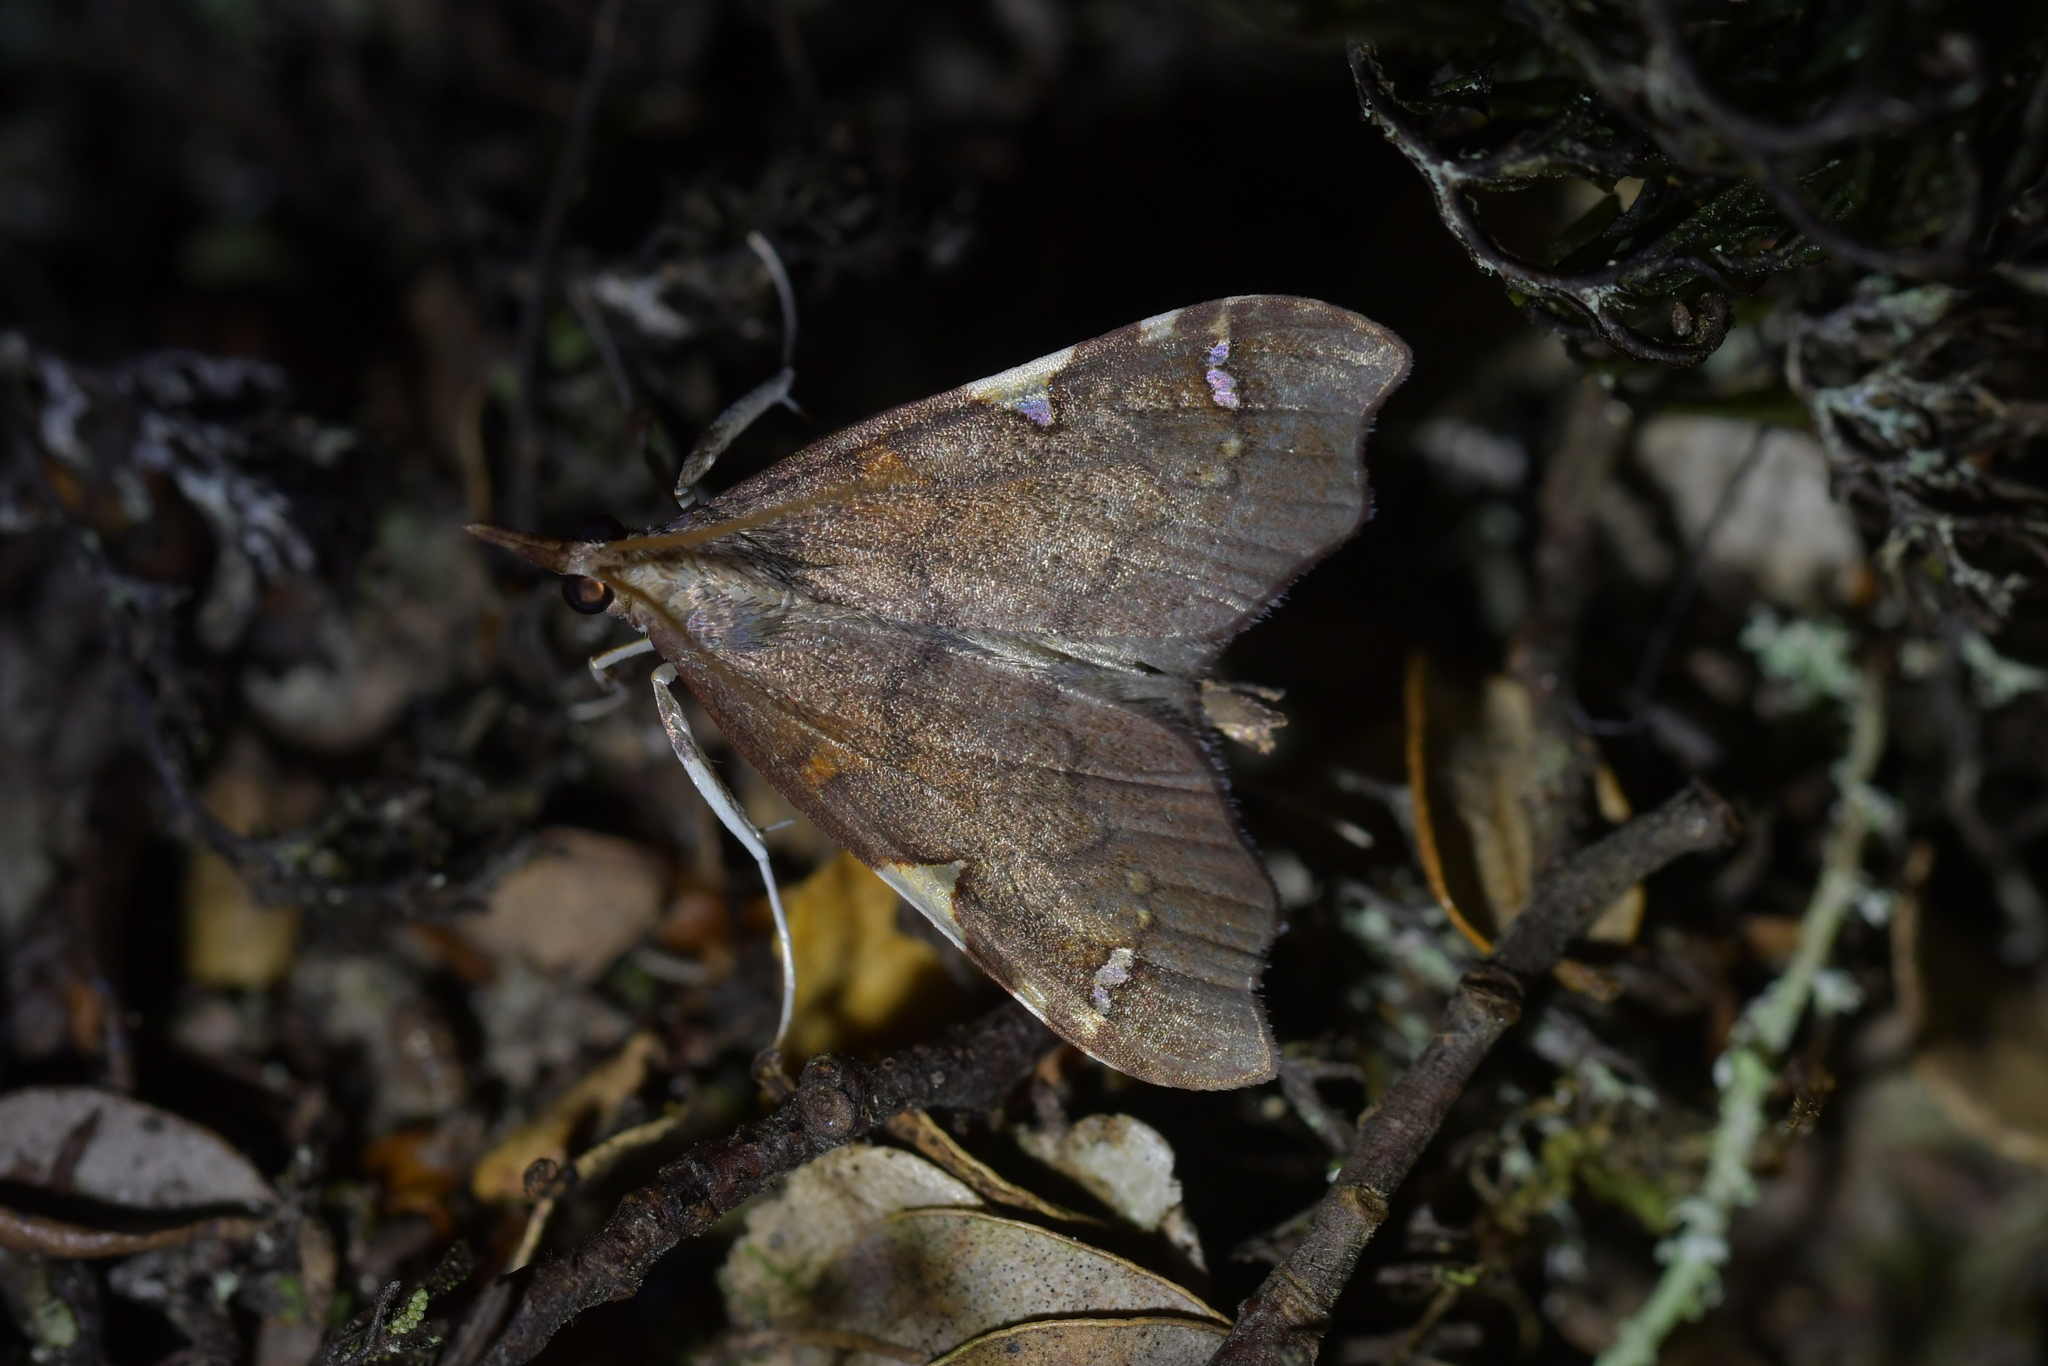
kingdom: Animalia
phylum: Arthropoda
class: Insecta
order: Lepidoptera
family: Crambidae
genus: Deana
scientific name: Deana hybreasalis
